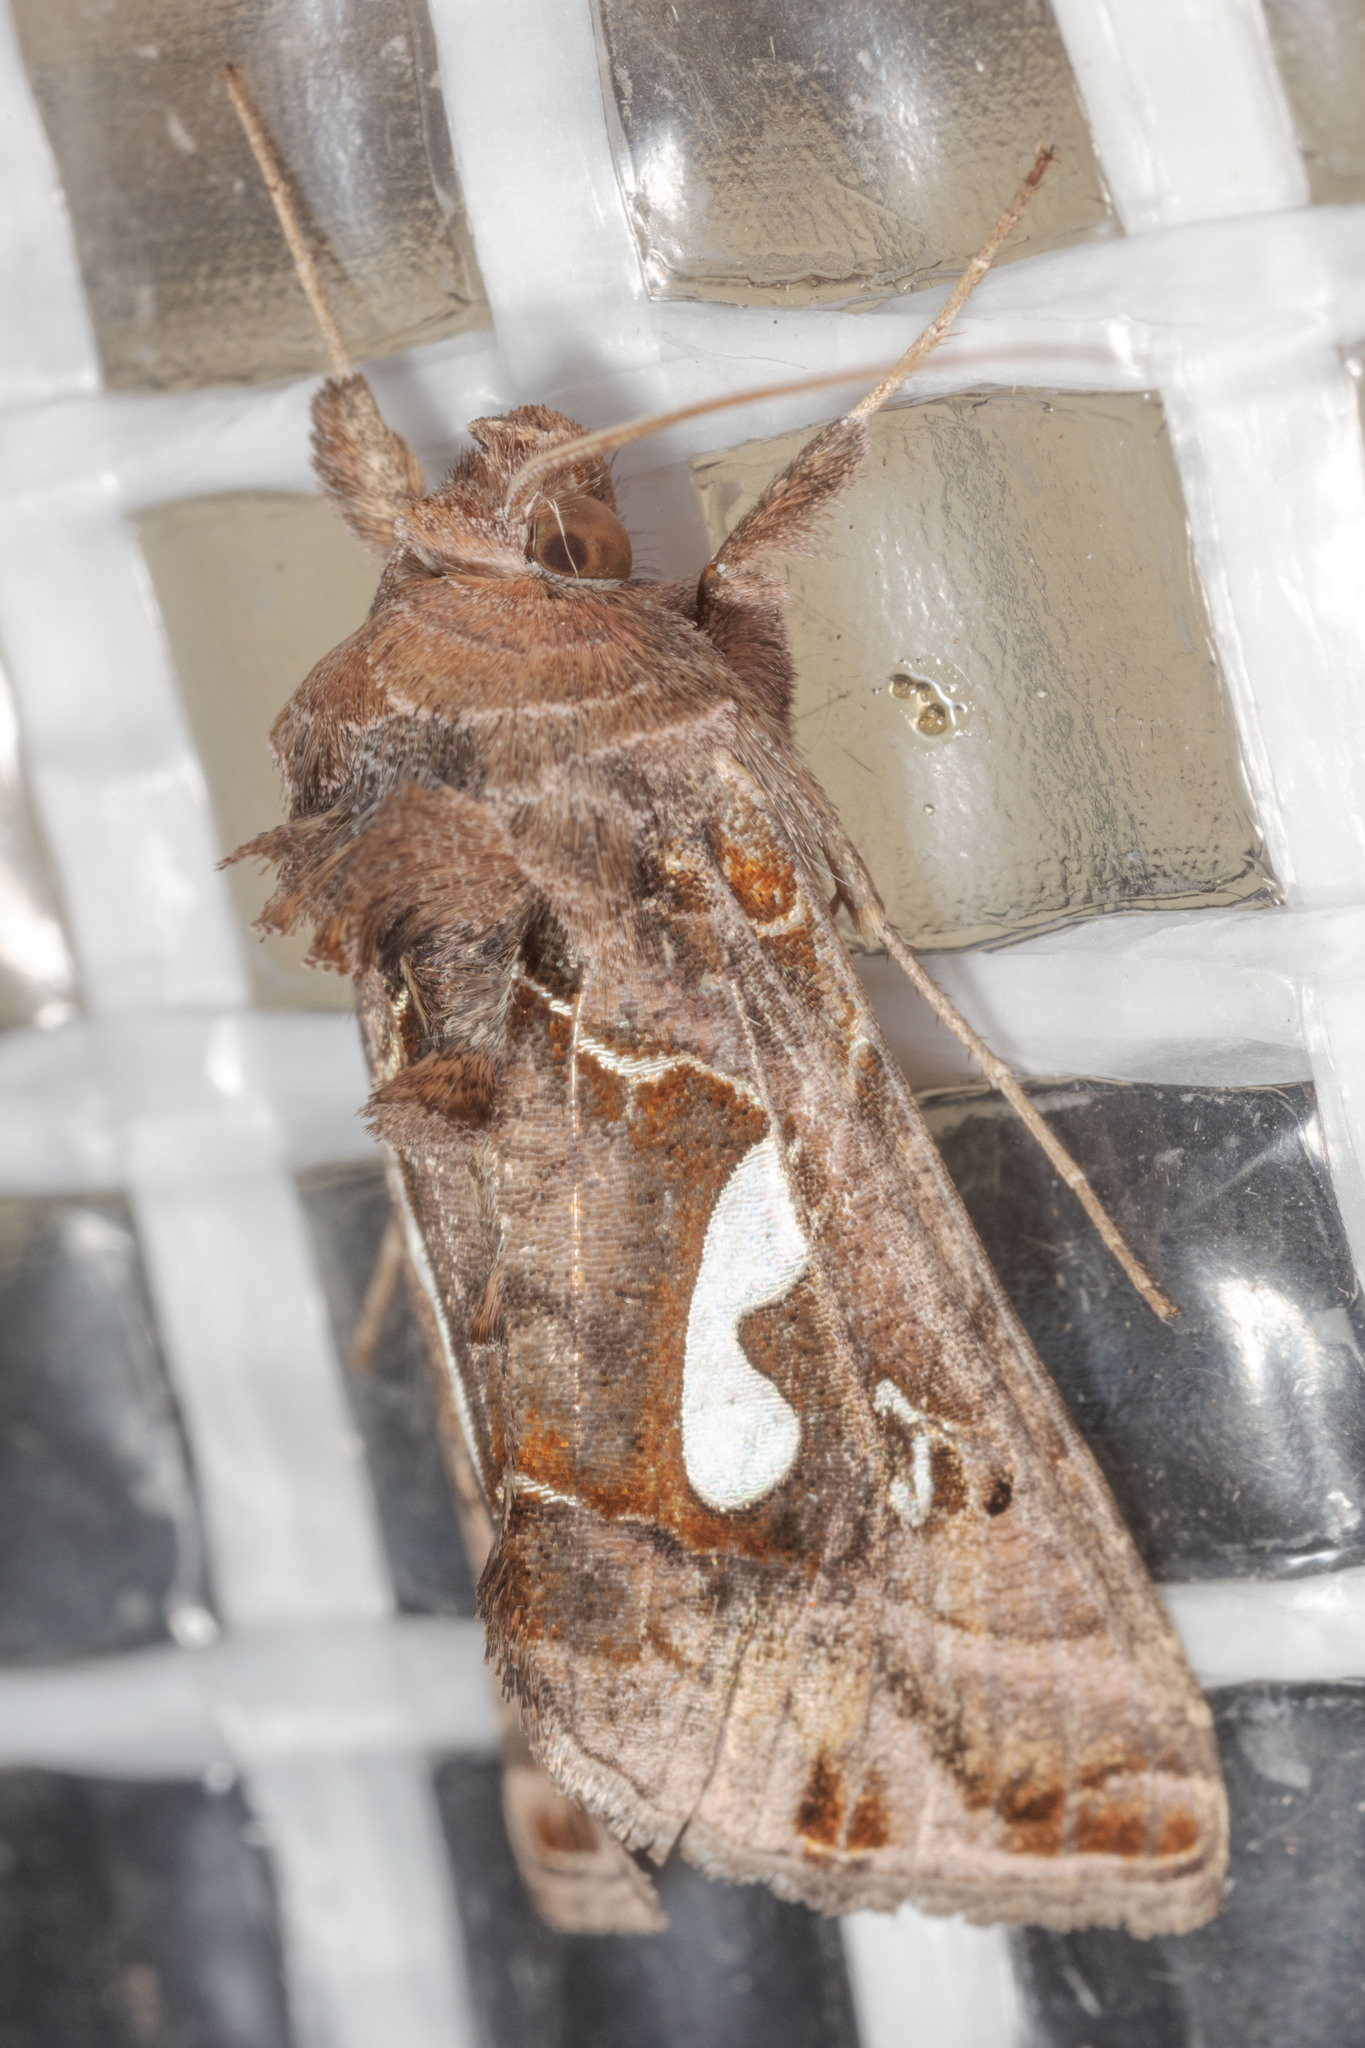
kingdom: Animalia
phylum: Arthropoda
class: Insecta
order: Lepidoptera
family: Noctuidae
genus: Megalographa
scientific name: Megalographa biloba
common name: Cutworm
